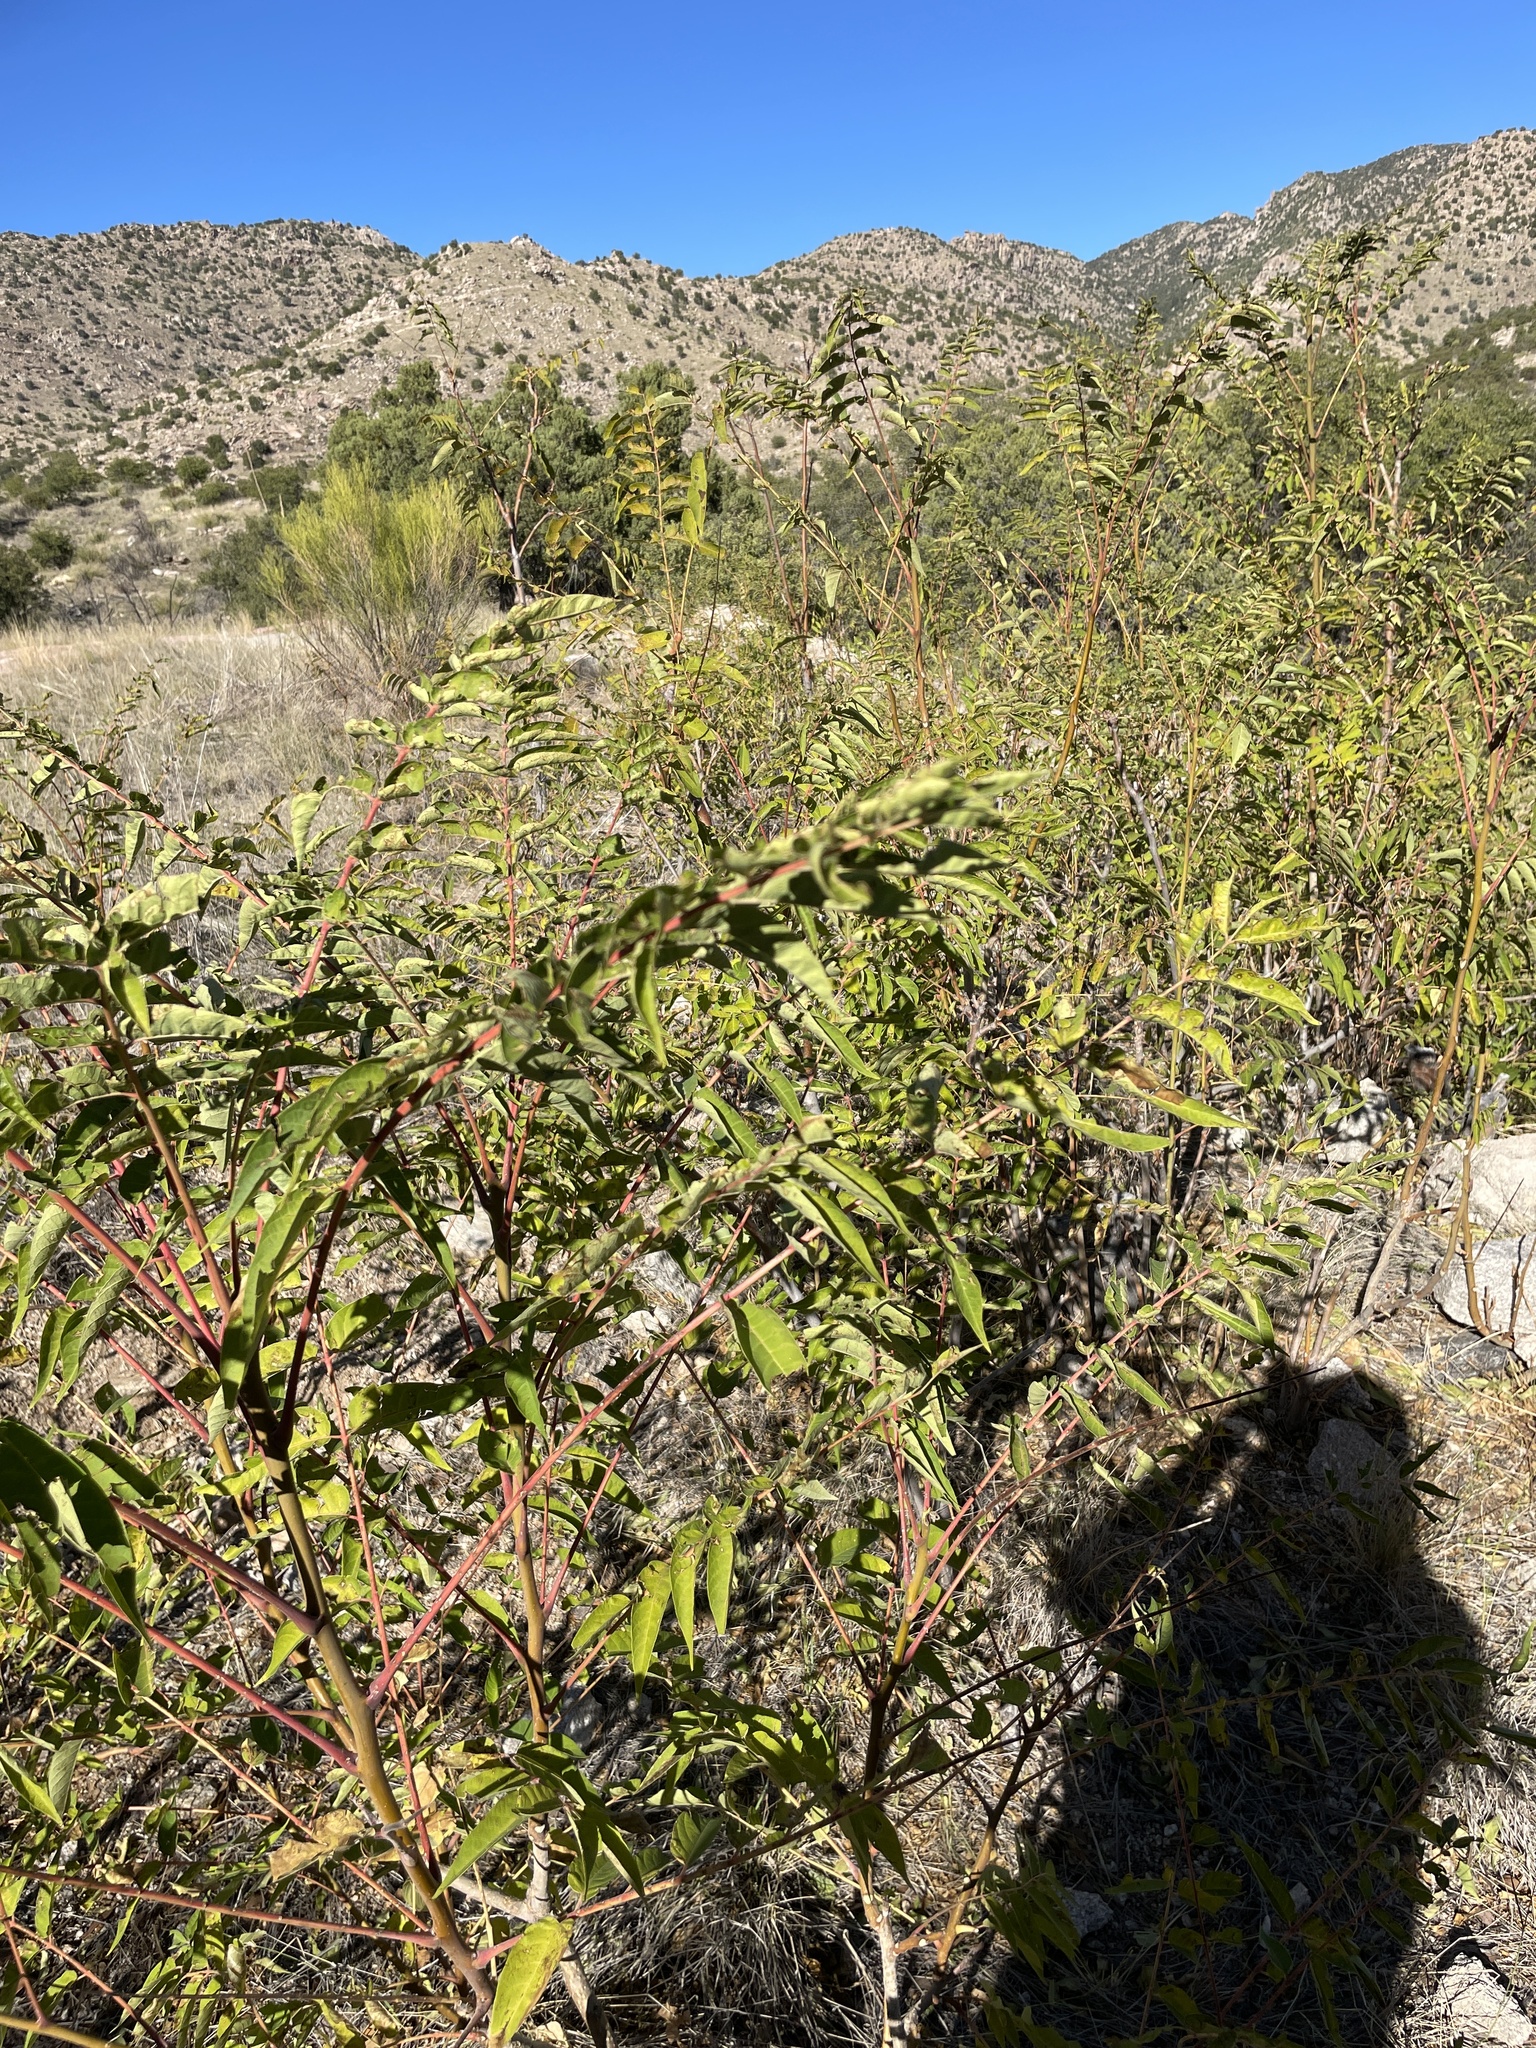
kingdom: Plantae
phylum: Tracheophyta
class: Magnoliopsida
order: Sapindales
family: Simaroubaceae
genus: Ailanthus
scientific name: Ailanthus altissima
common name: Tree-of-heaven
